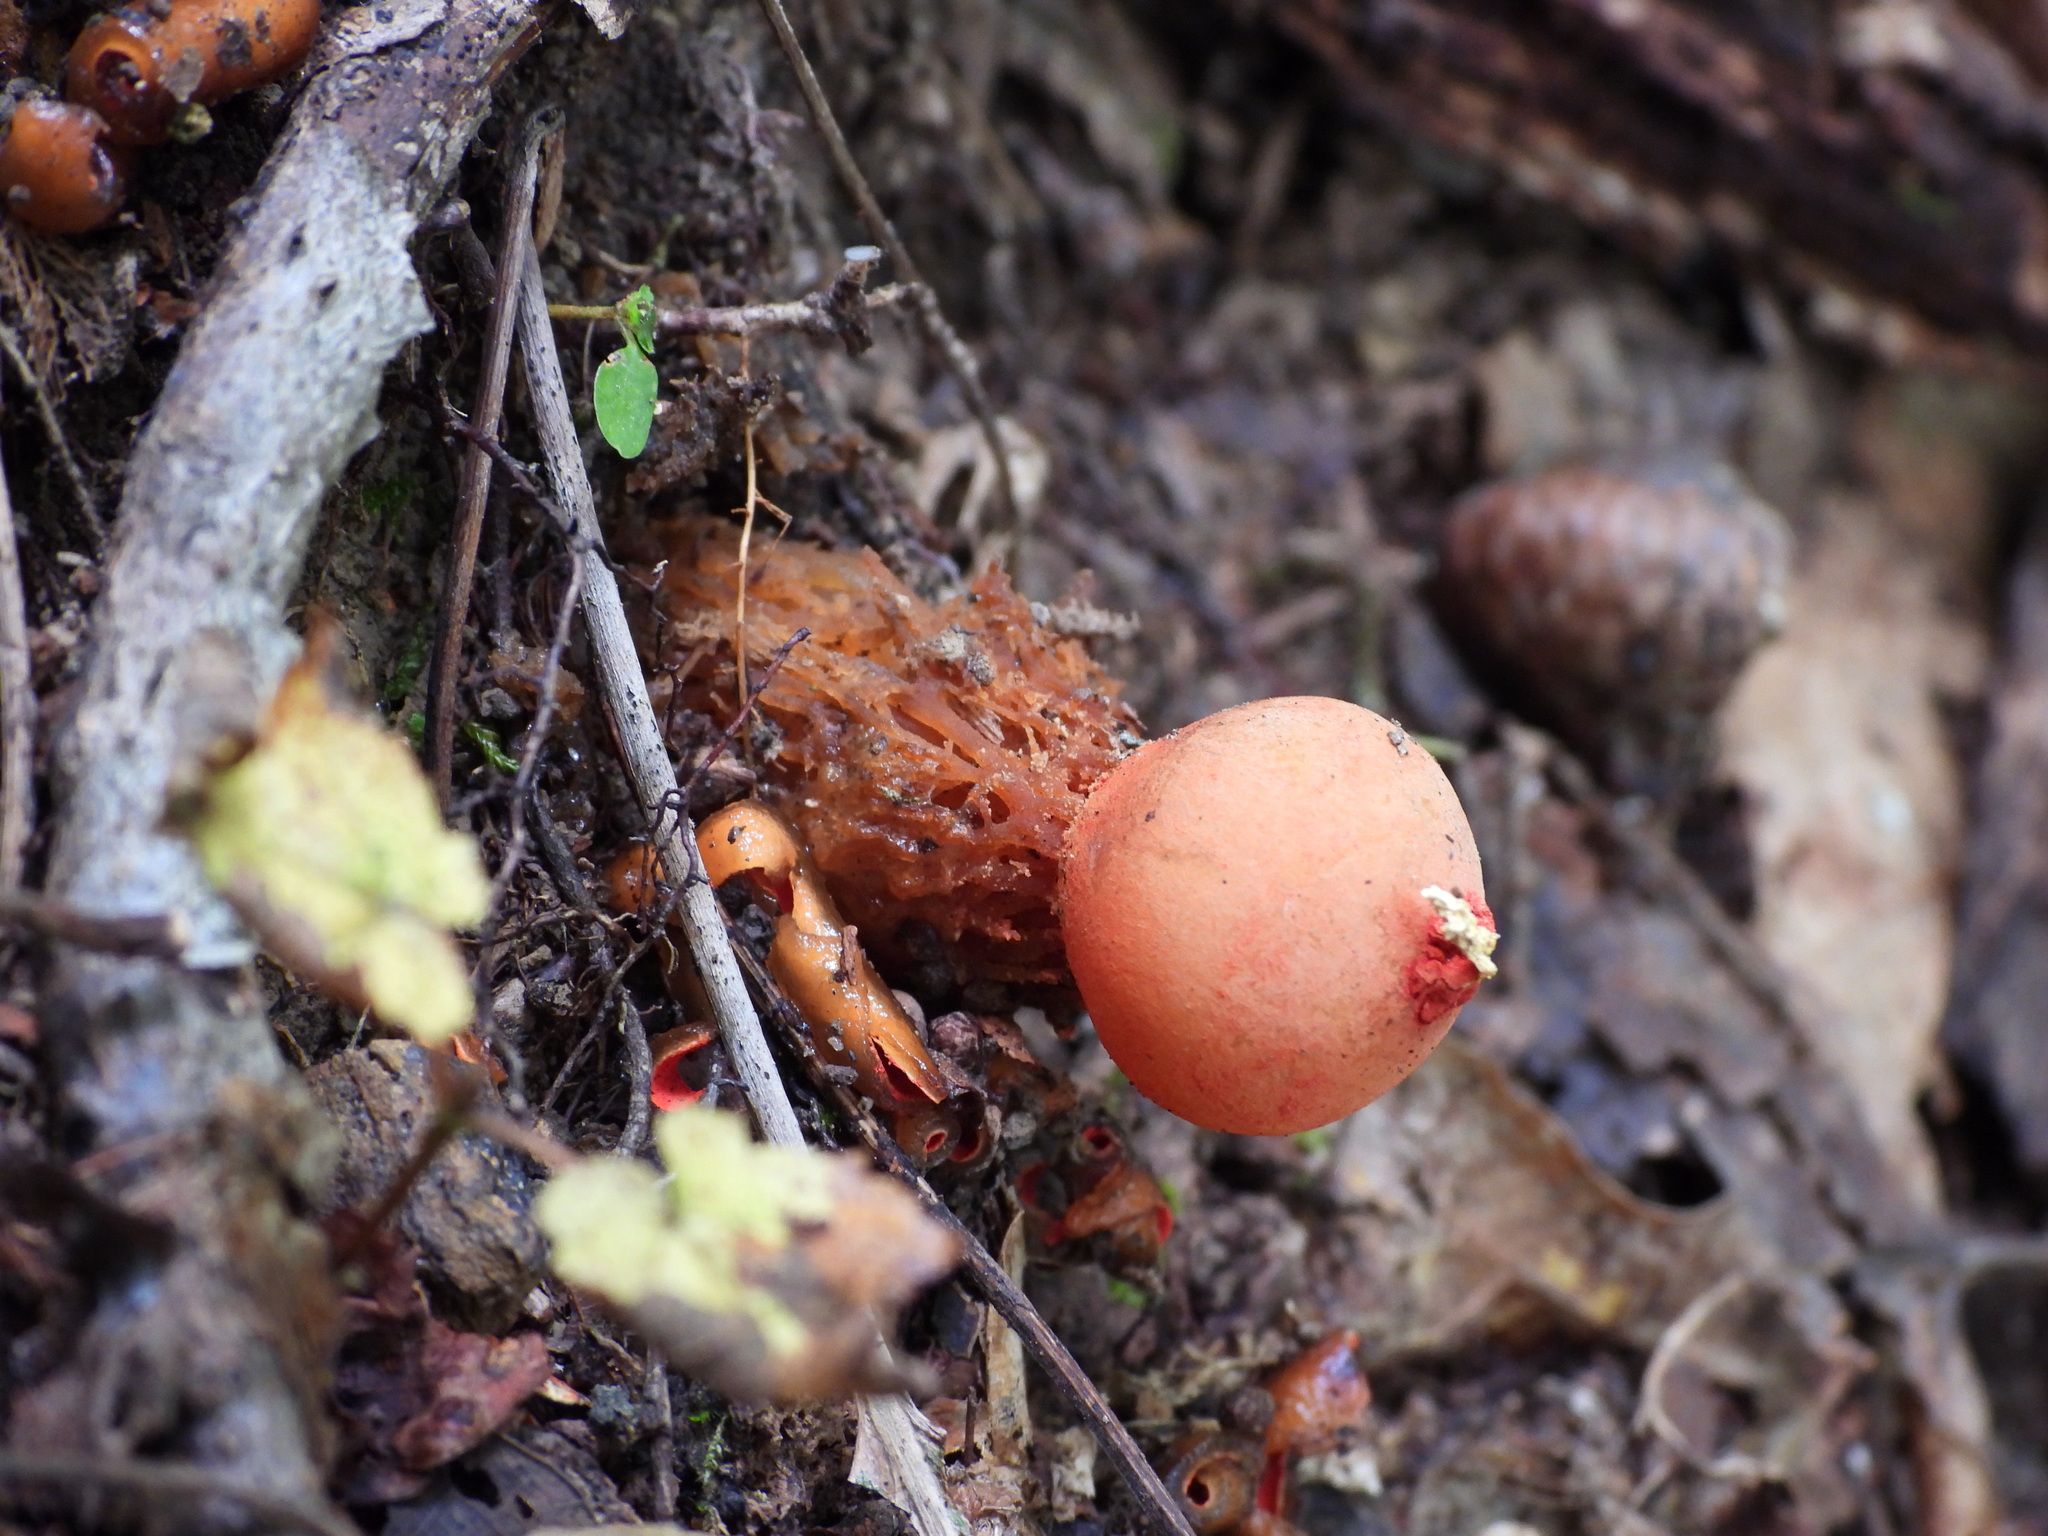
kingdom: Fungi
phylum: Basidiomycota
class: Agaricomycetes
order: Boletales
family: Calostomataceae
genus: Calostoma
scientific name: Calostoma cinnabarinum
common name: Stalked puffball-in-aspic
